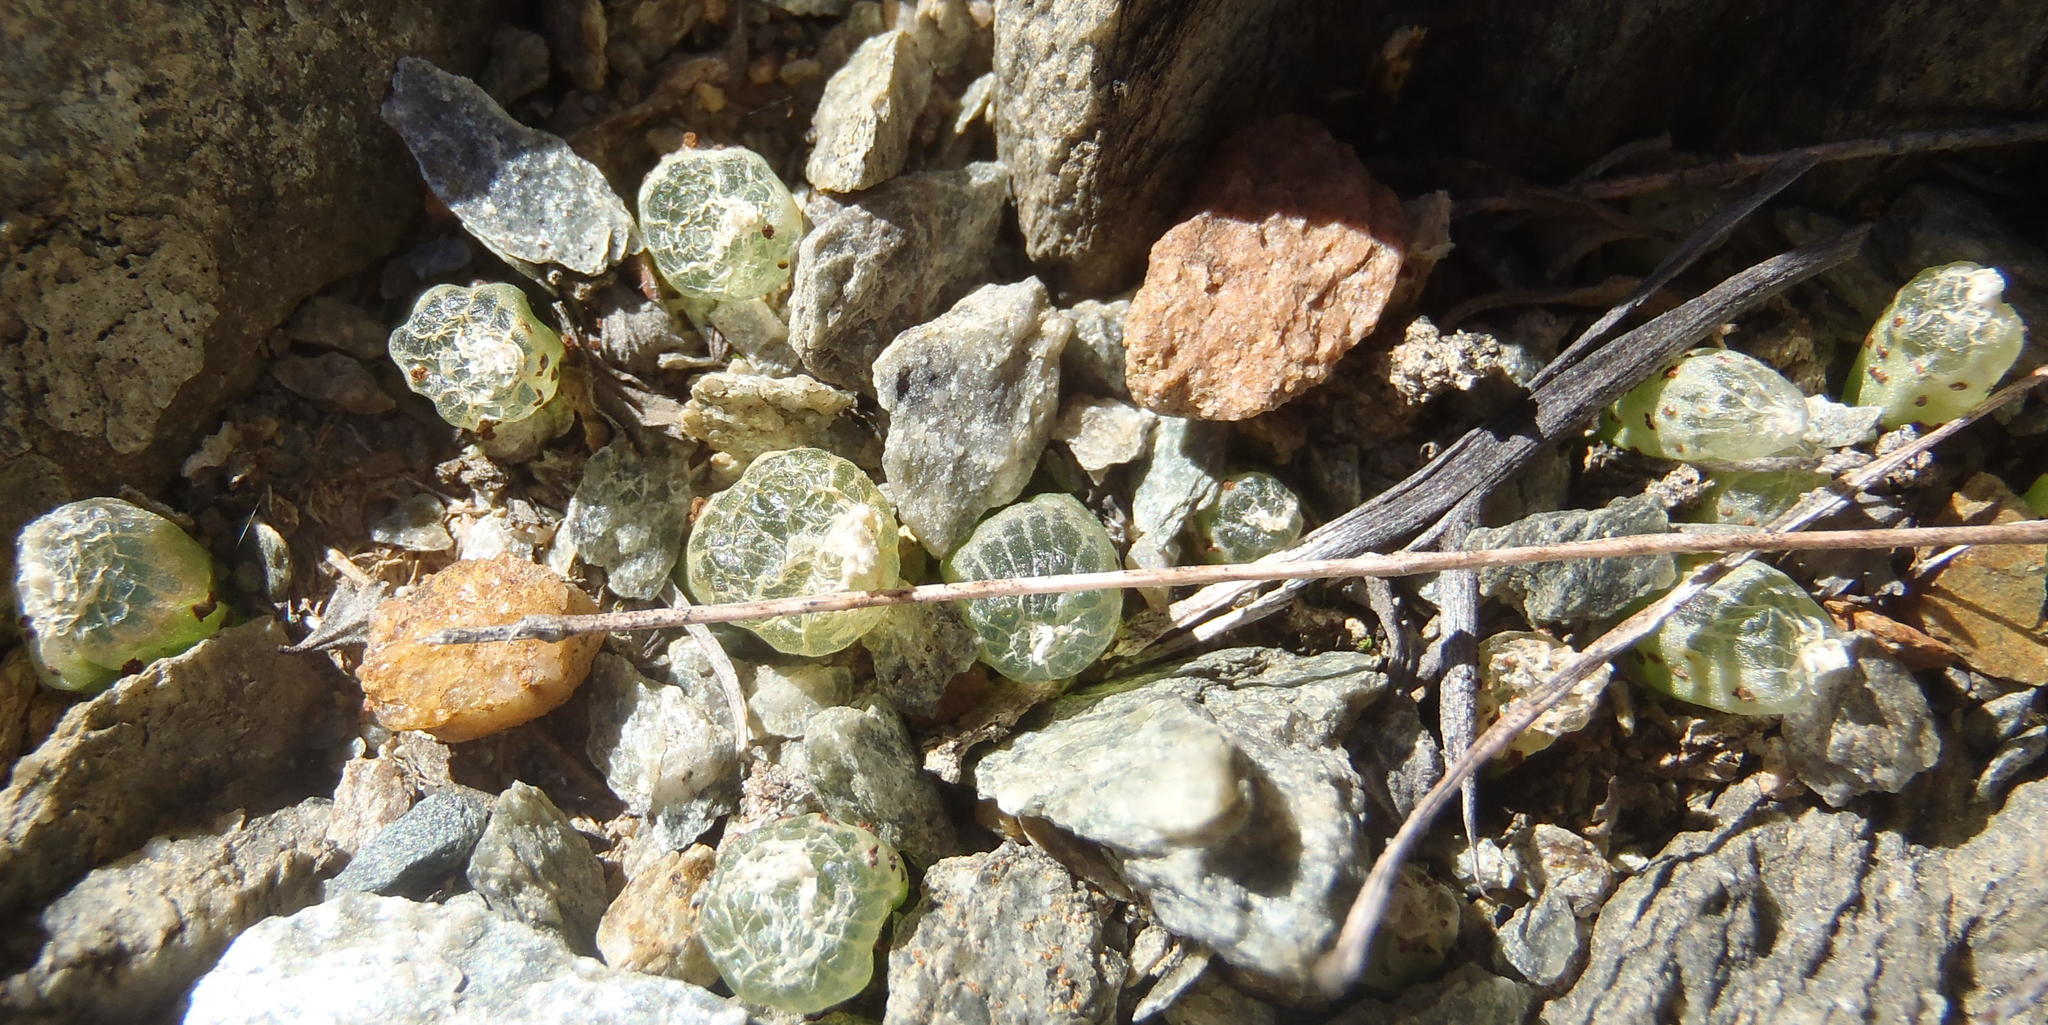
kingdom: Plantae
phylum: Tracheophyta
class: Liliopsida
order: Asparagales
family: Asphodelaceae
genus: Bulbine
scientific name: Bulbine mesembryanthoides
